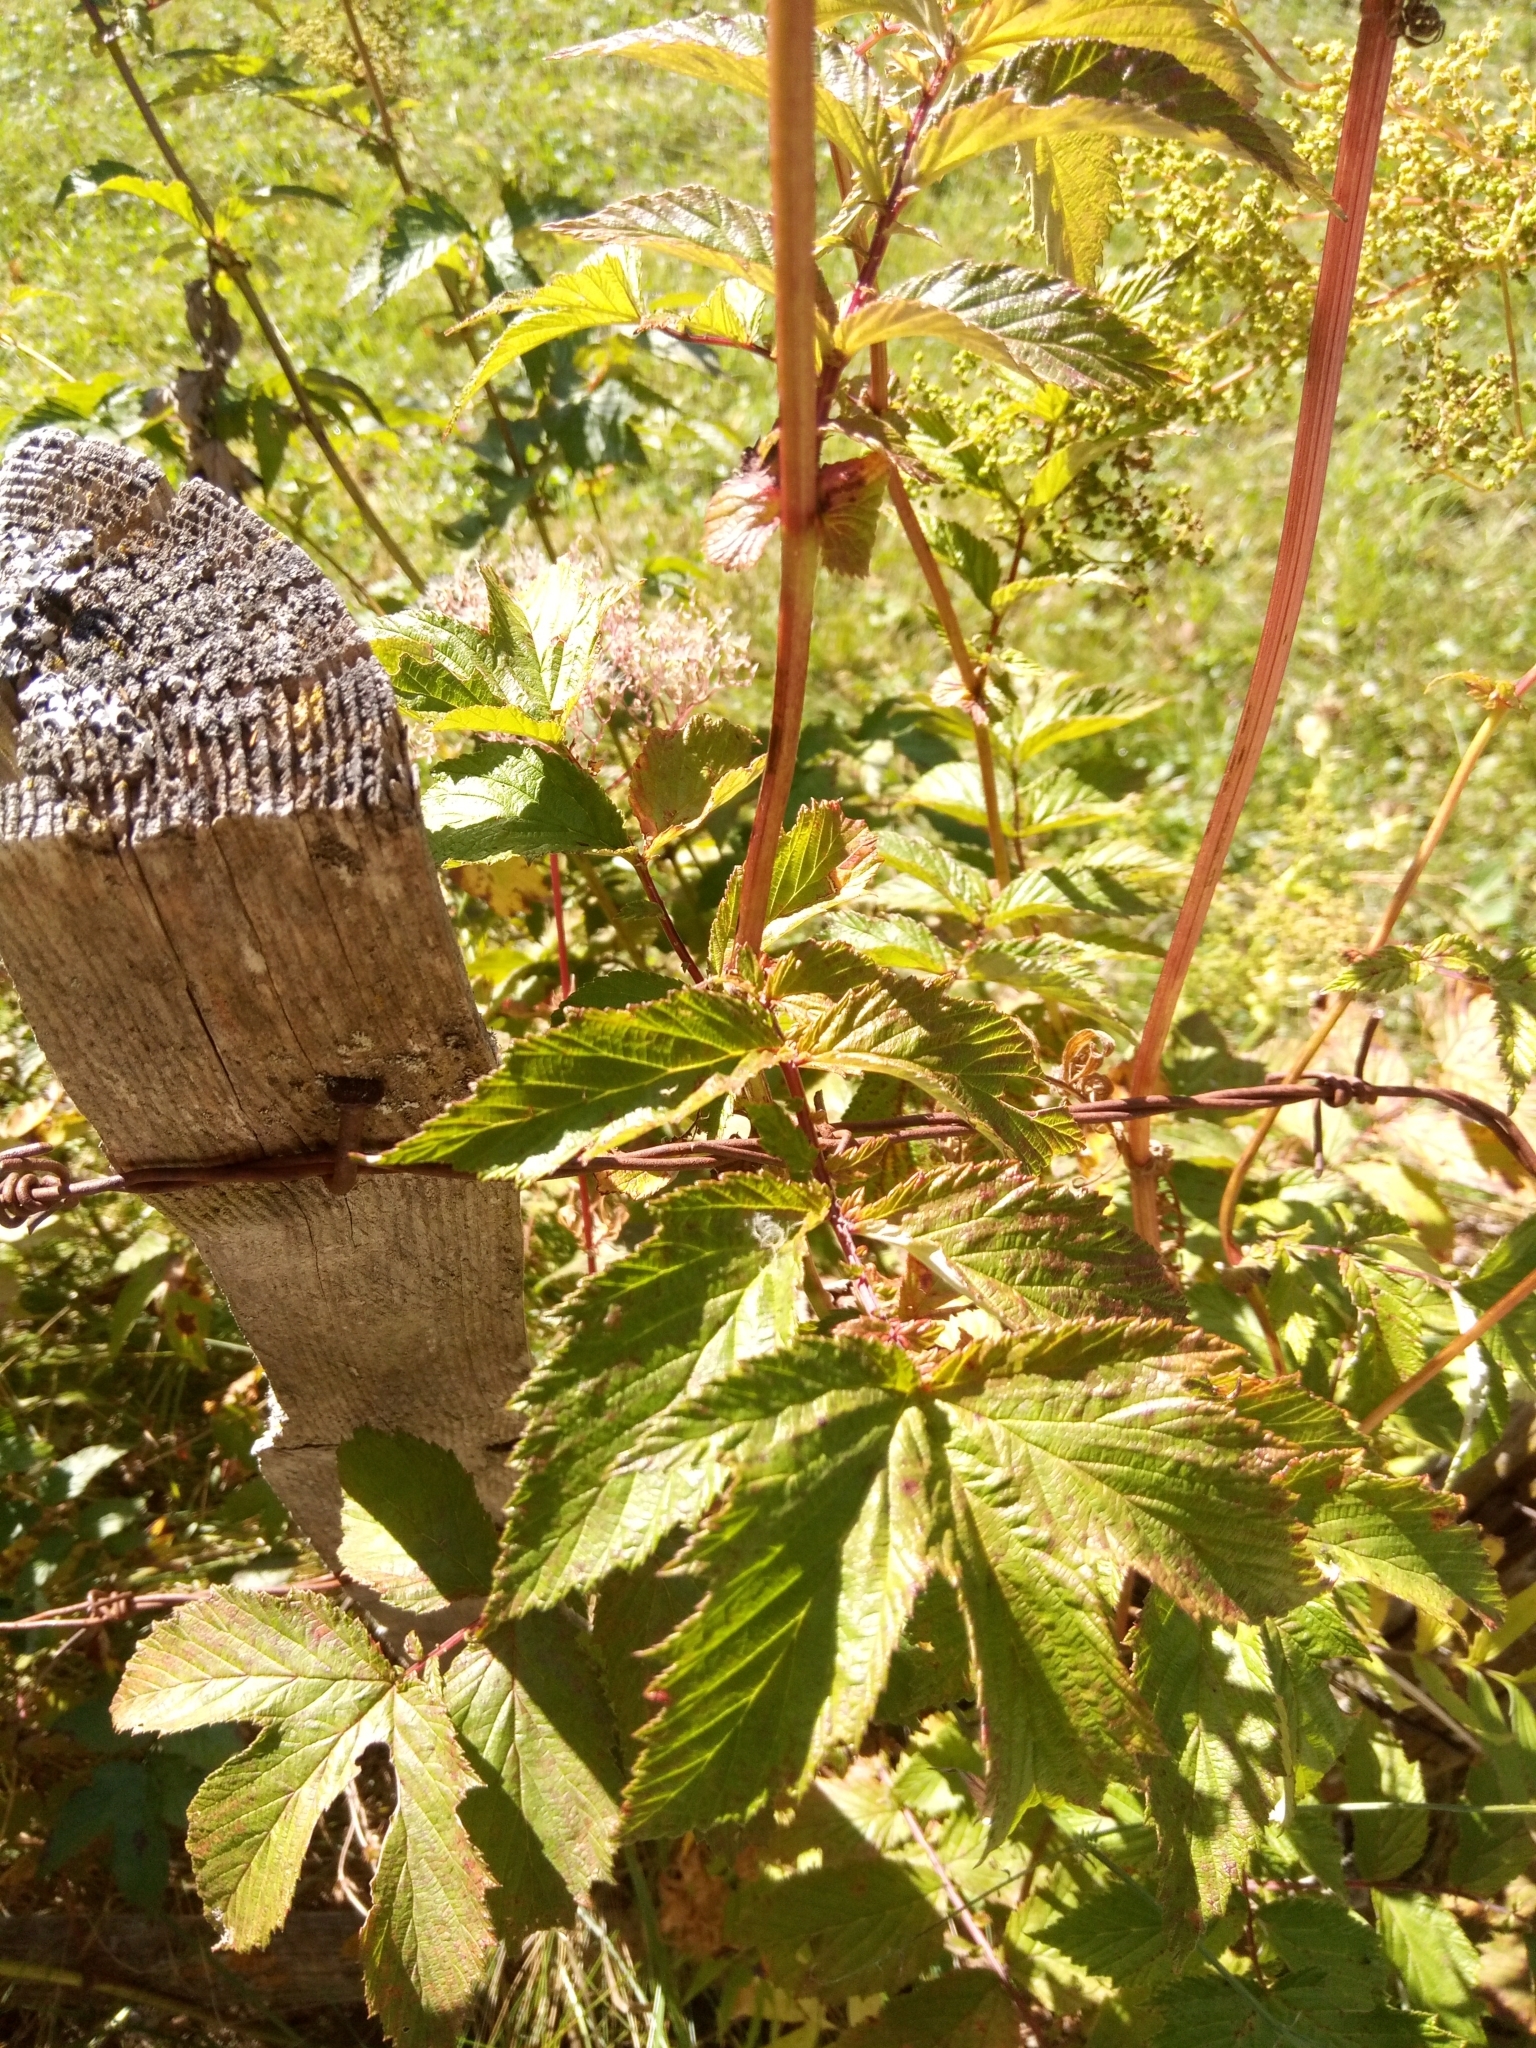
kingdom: Plantae
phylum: Tracheophyta
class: Magnoliopsida
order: Rosales
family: Rosaceae
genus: Filipendula
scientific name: Filipendula ulmaria
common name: Meadowsweet
